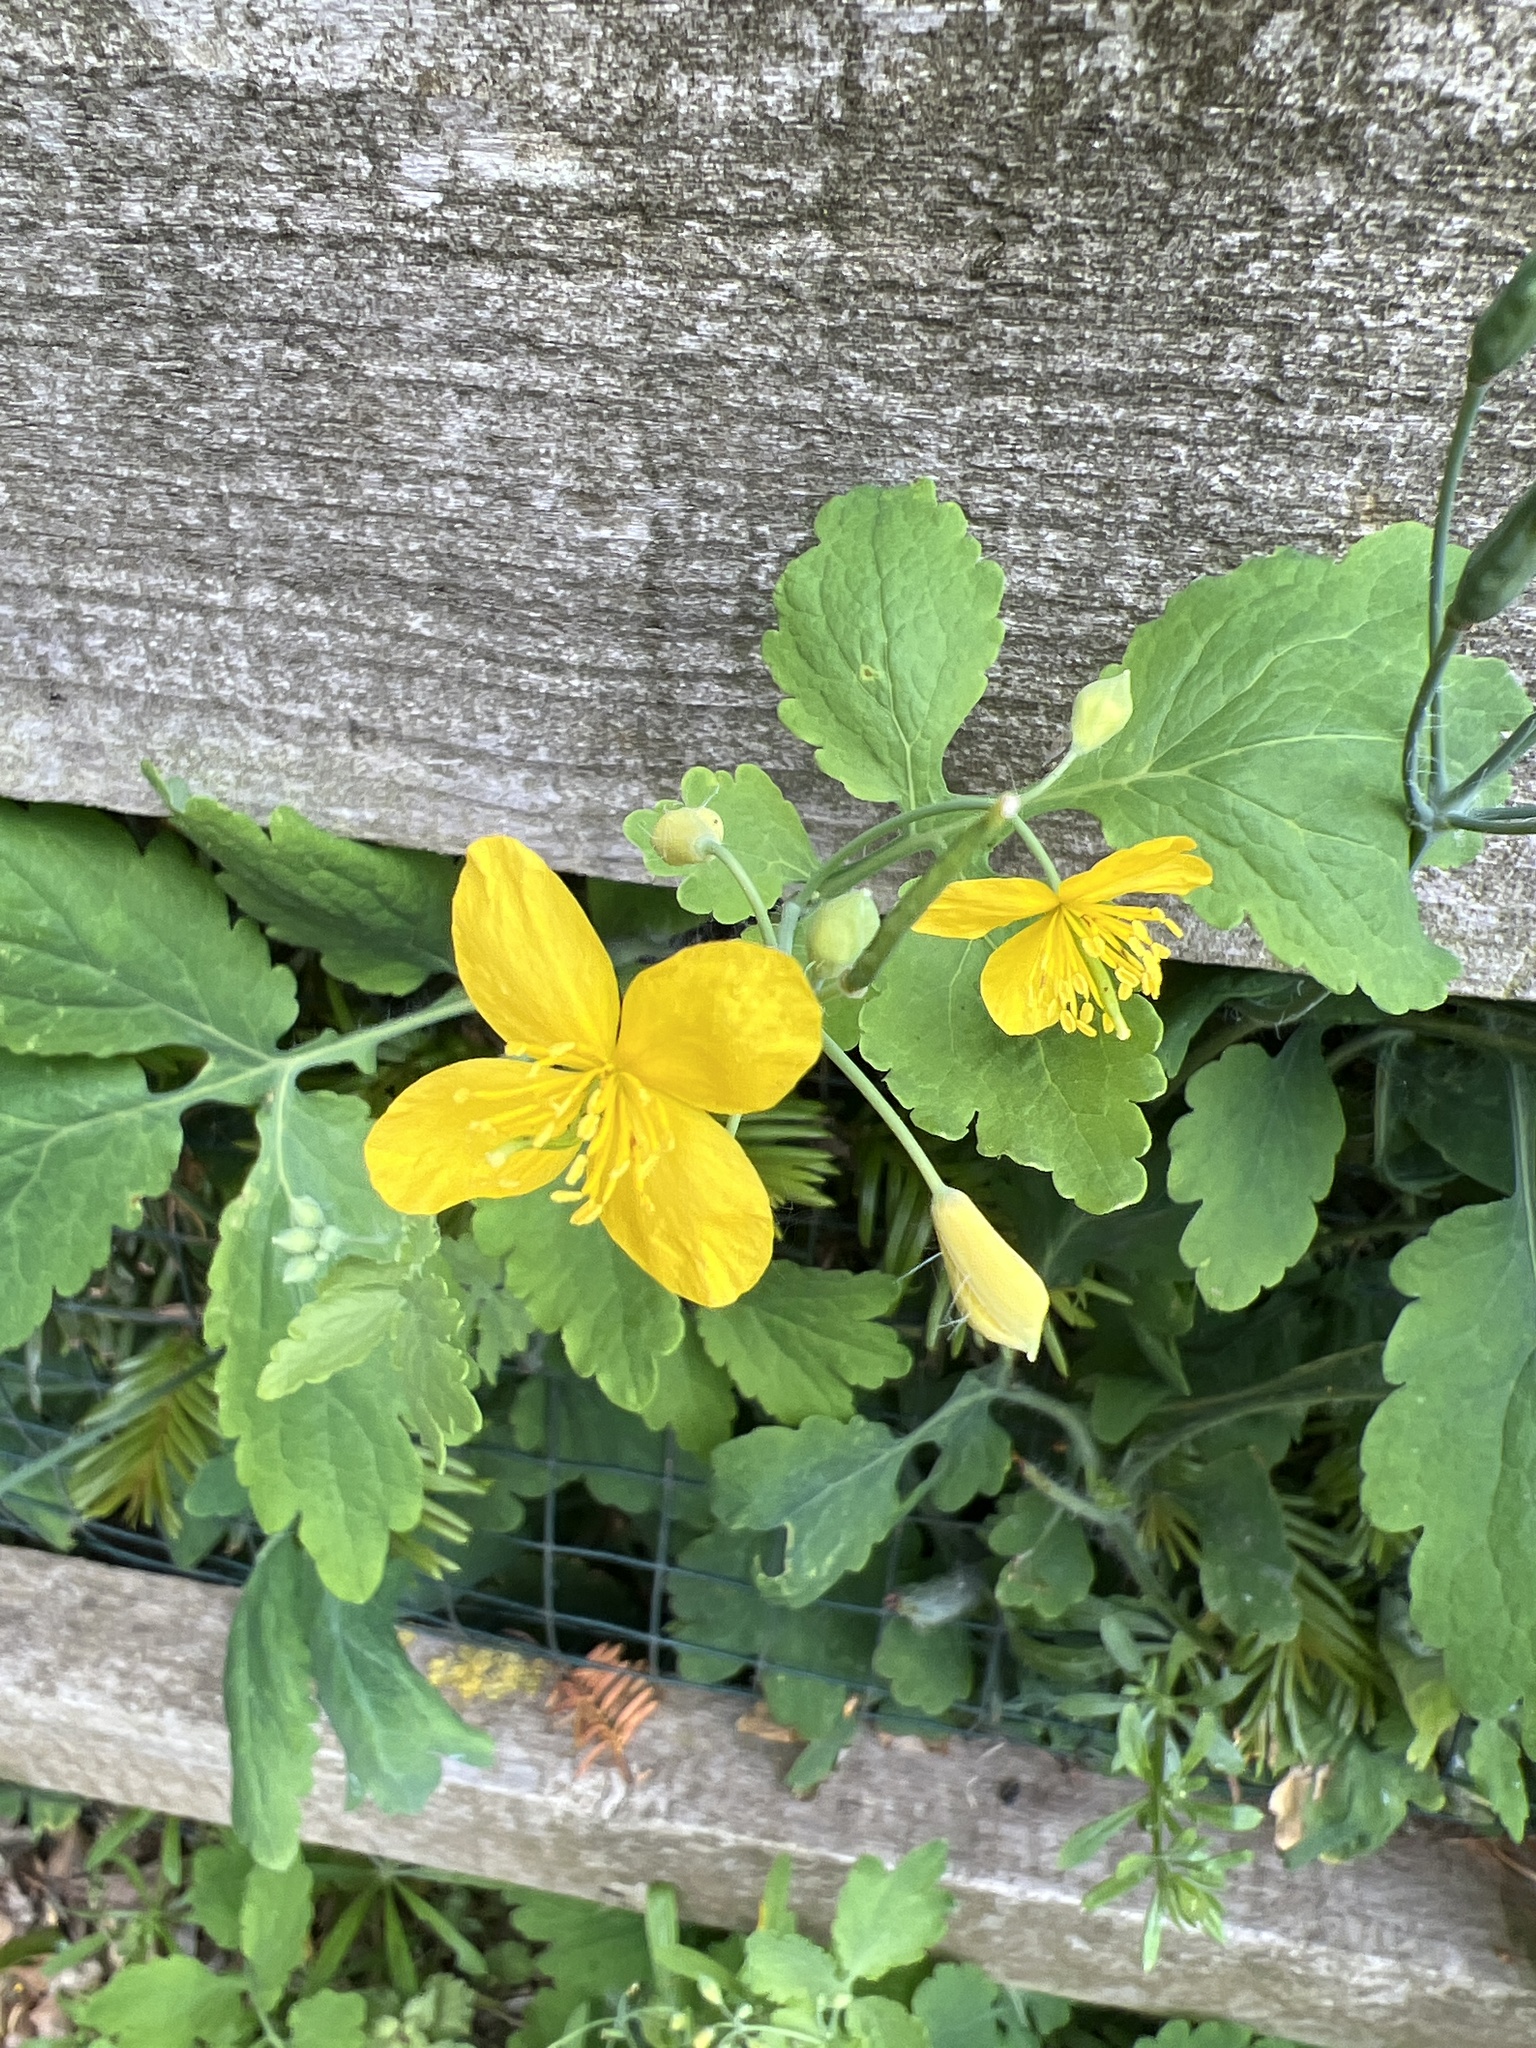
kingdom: Plantae
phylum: Tracheophyta
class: Magnoliopsida
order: Ranunculales
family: Papaveraceae
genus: Chelidonium
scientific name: Chelidonium majus
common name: Greater celandine
